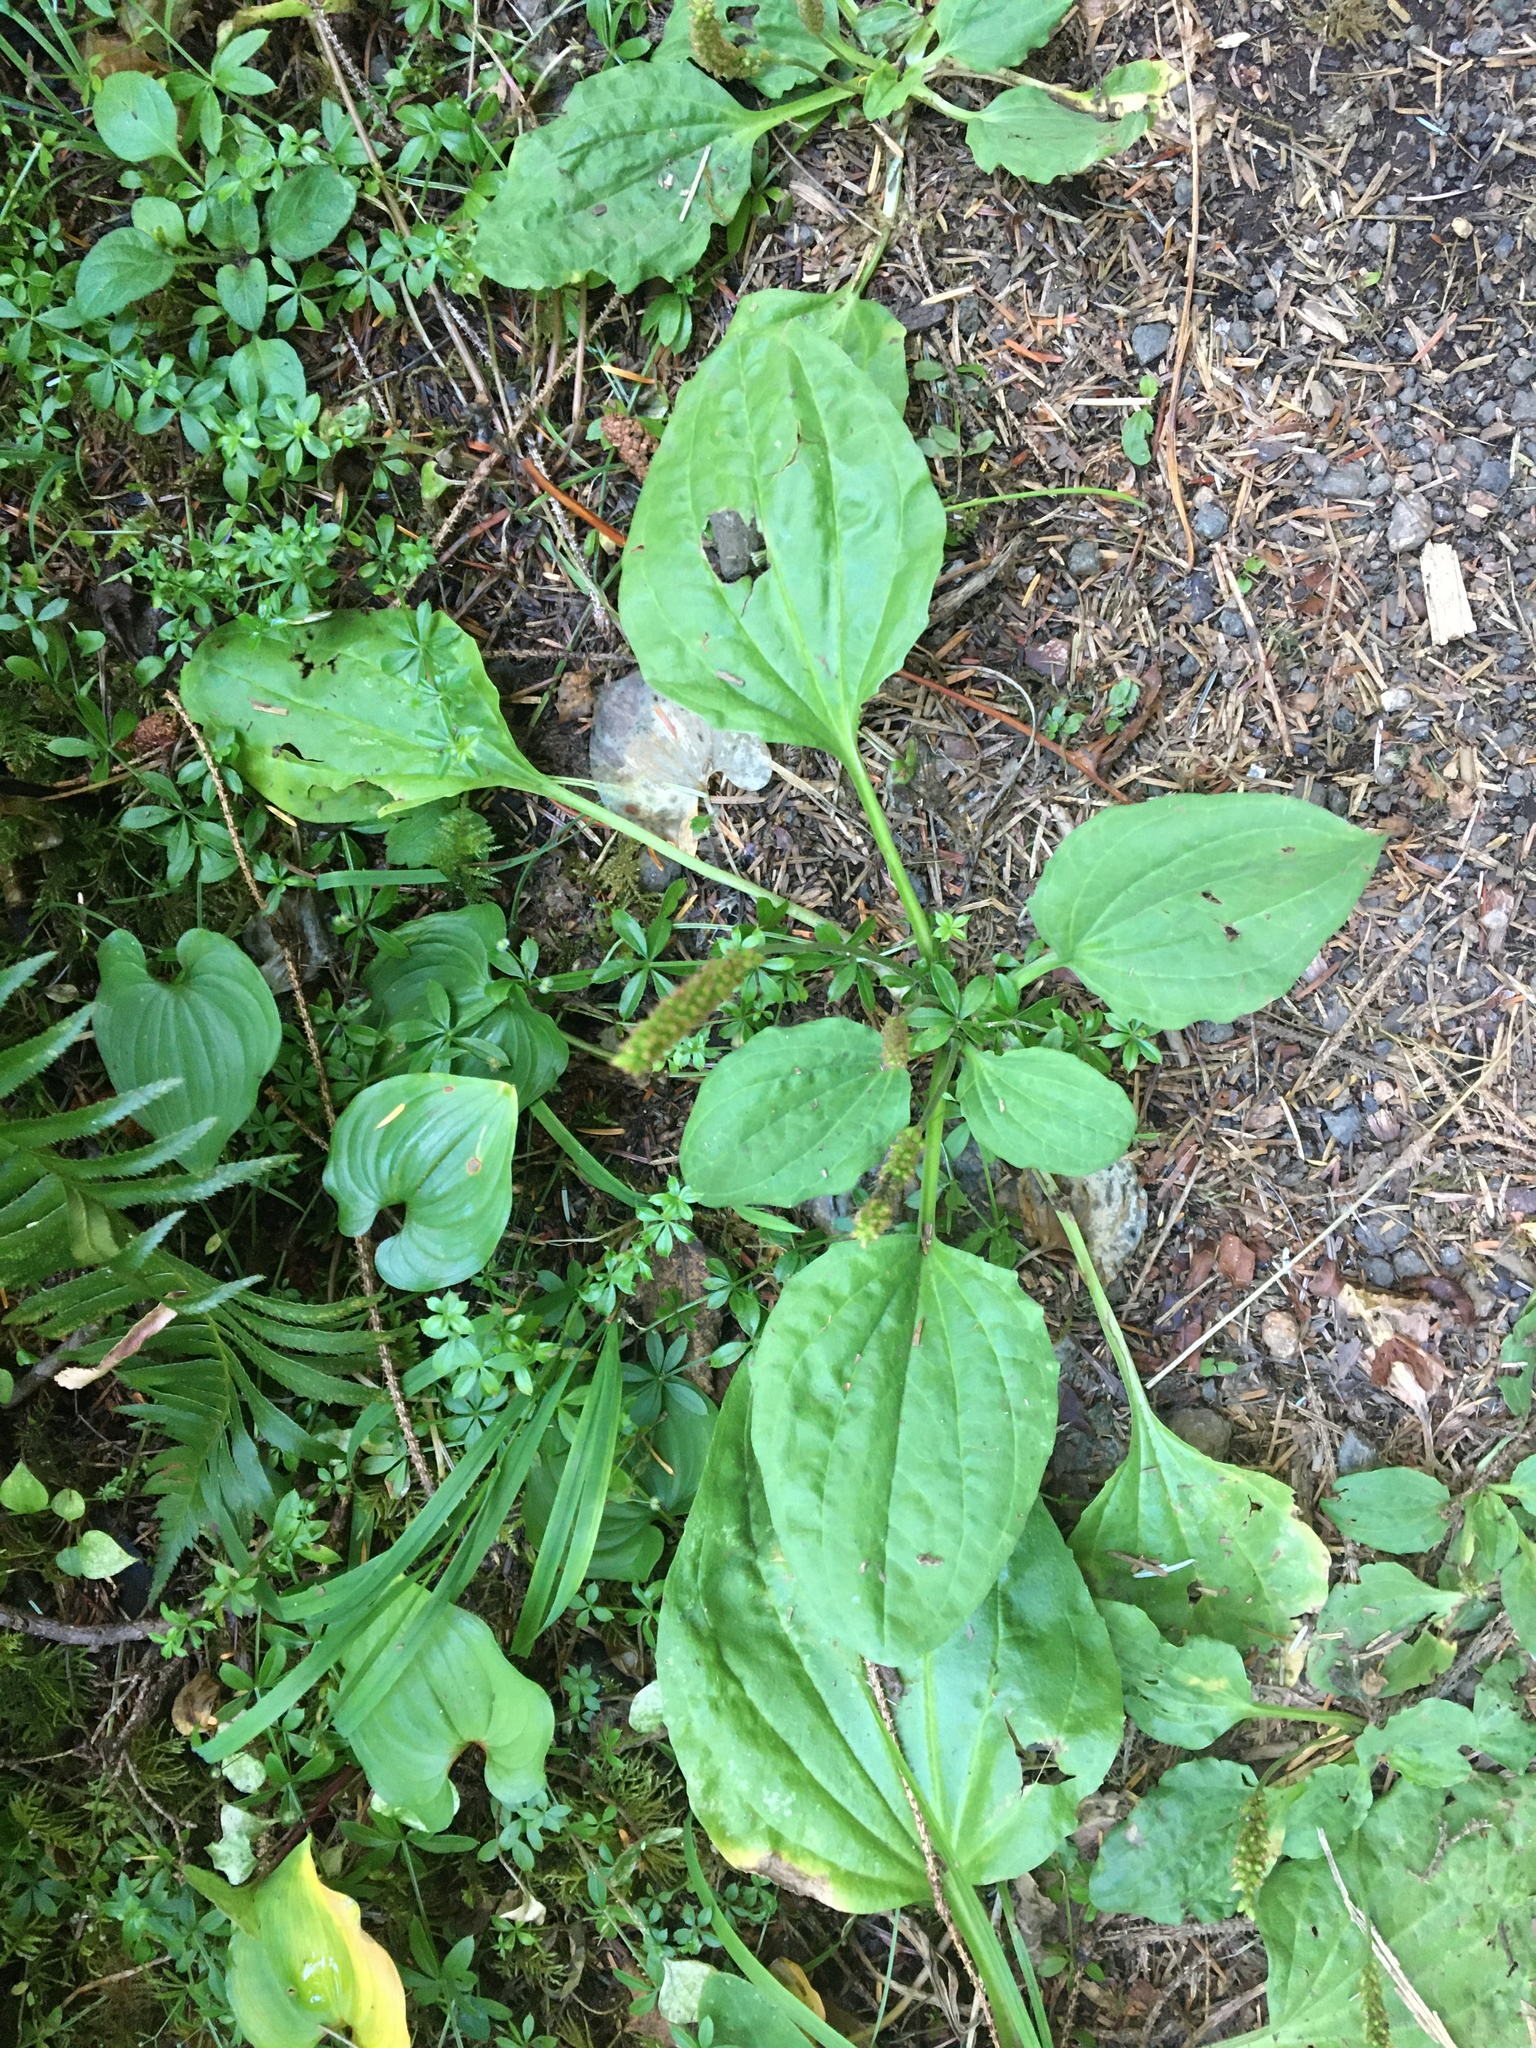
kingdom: Plantae
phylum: Tracheophyta
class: Magnoliopsida
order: Lamiales
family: Plantaginaceae
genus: Plantago
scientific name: Plantago major
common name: Common plantain
